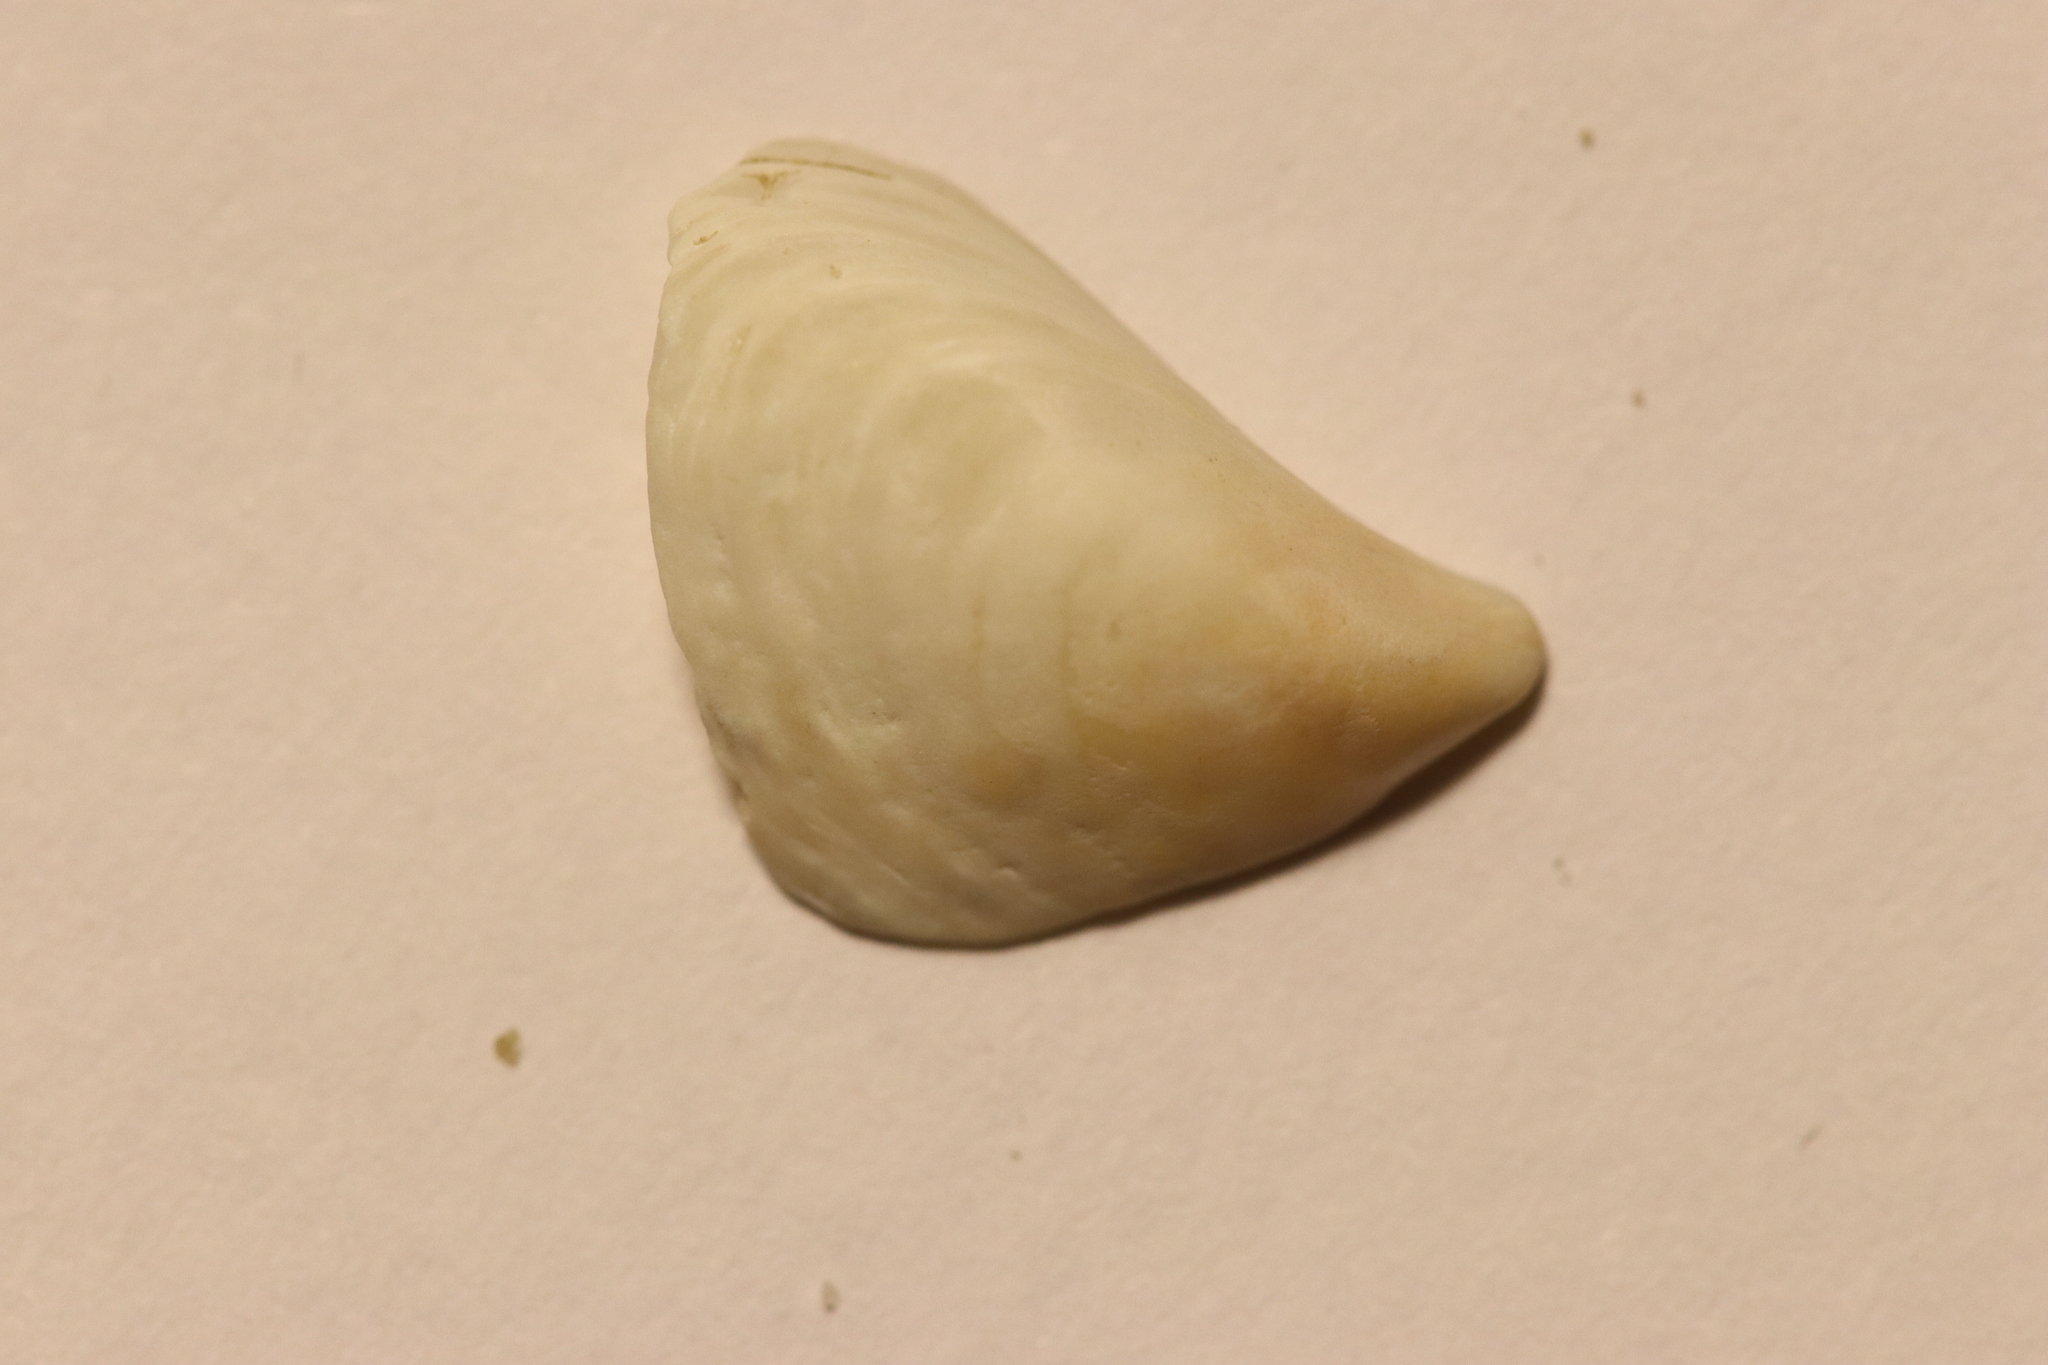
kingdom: Animalia
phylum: Mollusca
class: Bivalvia
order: Myida
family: Dreissenidae
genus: Dreissena
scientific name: Dreissena bugensis
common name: Quagga mussel
